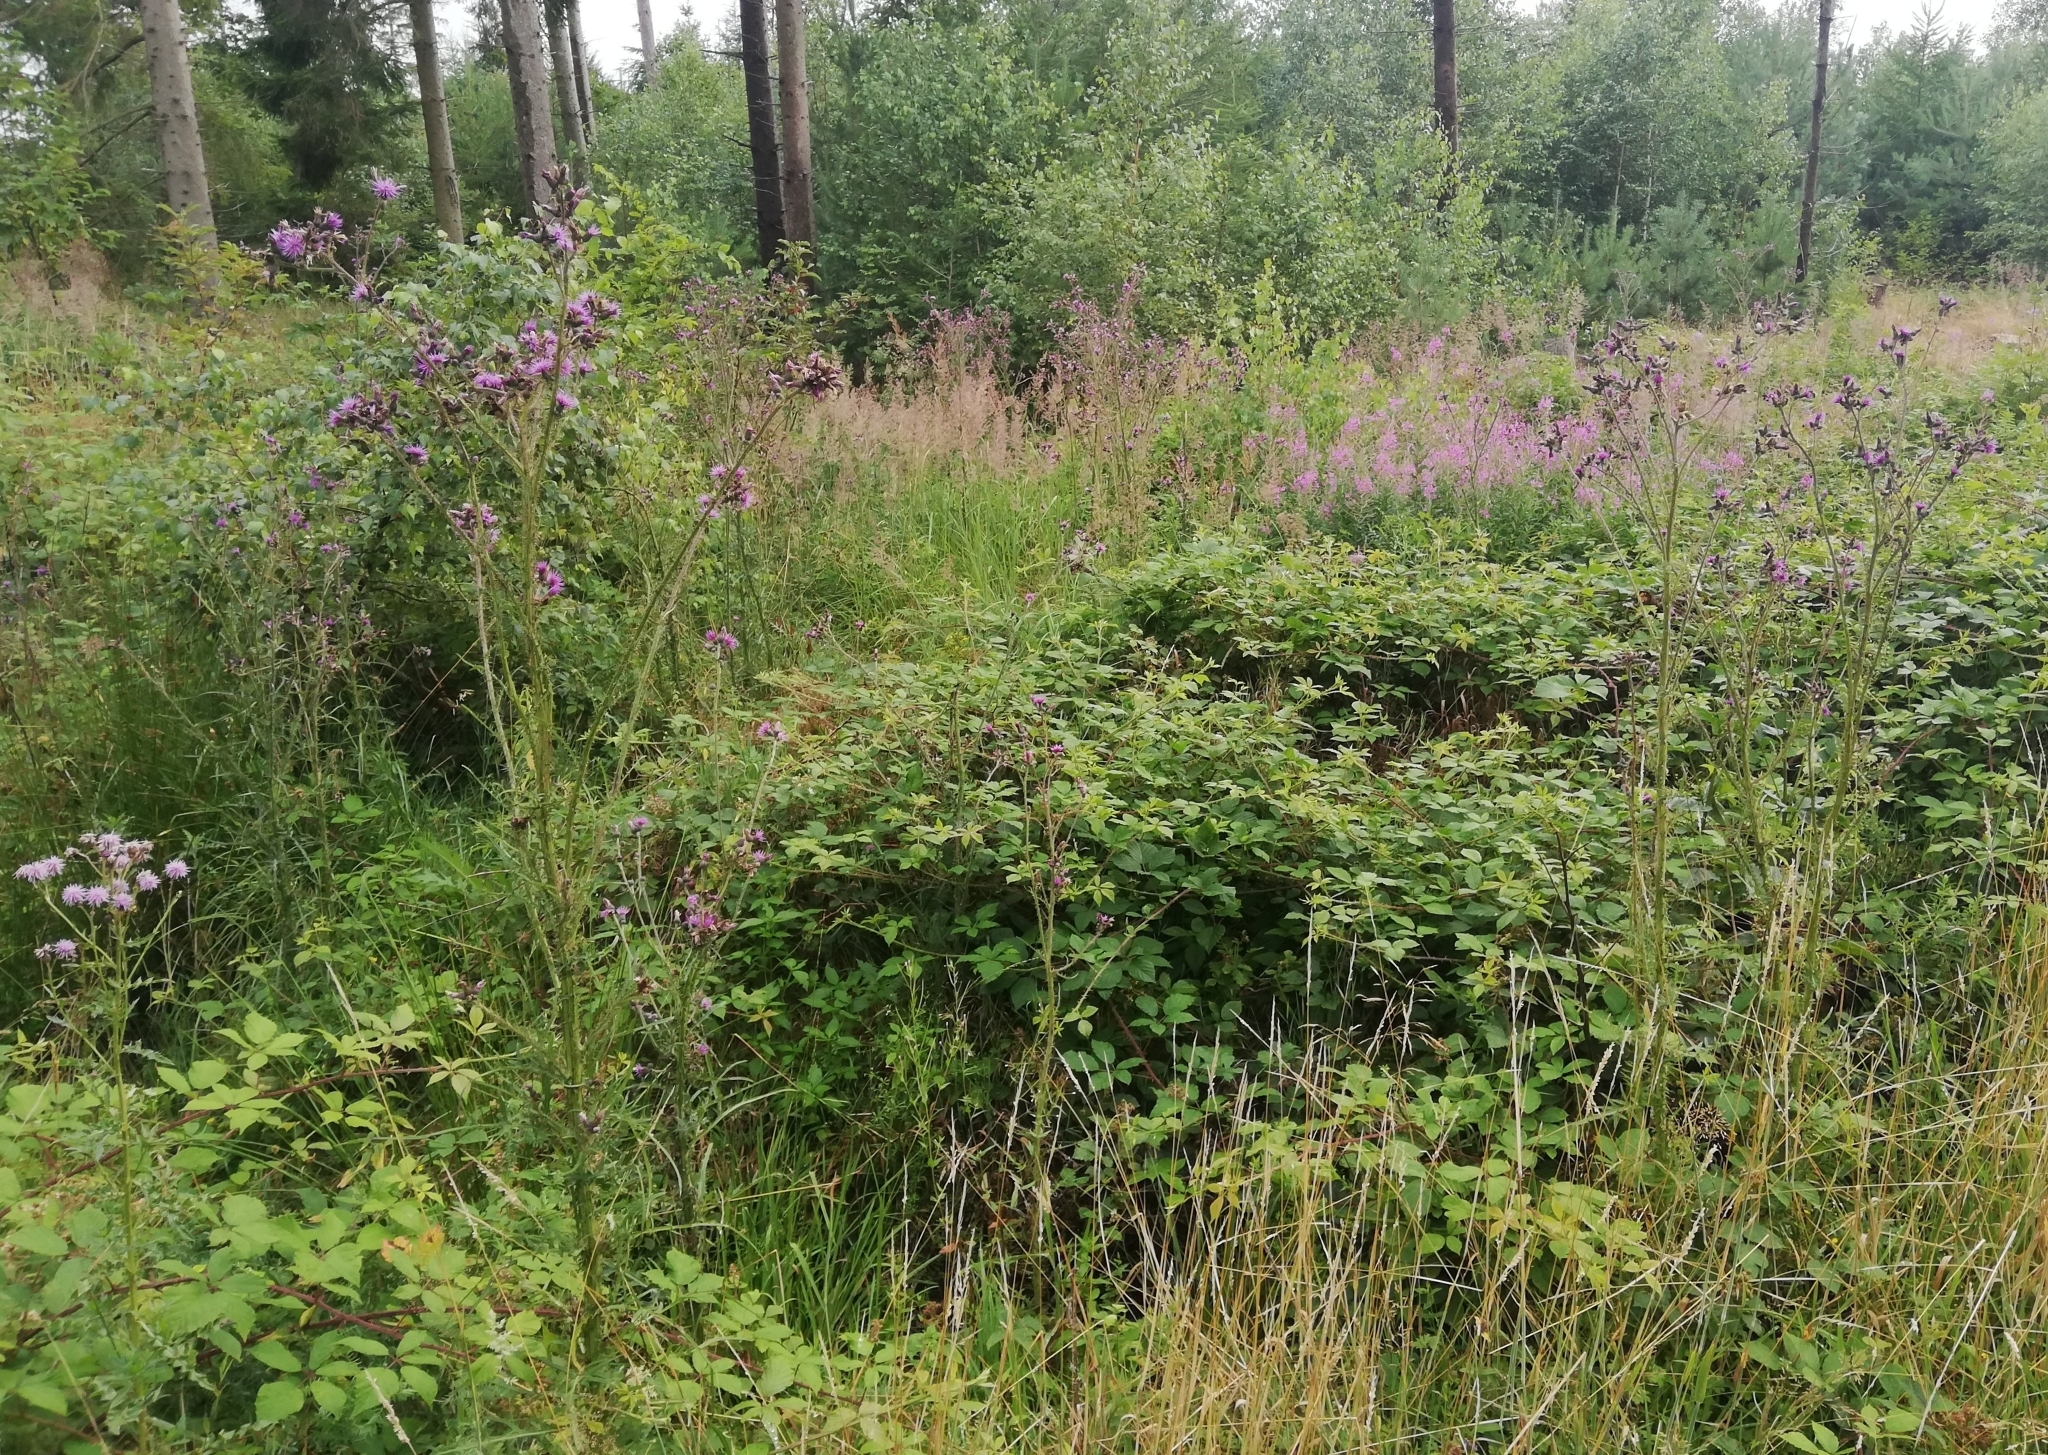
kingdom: Plantae
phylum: Tracheophyta
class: Magnoliopsida
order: Asterales
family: Asteraceae
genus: Cirsium
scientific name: Cirsium palustre
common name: Marsh thistle
